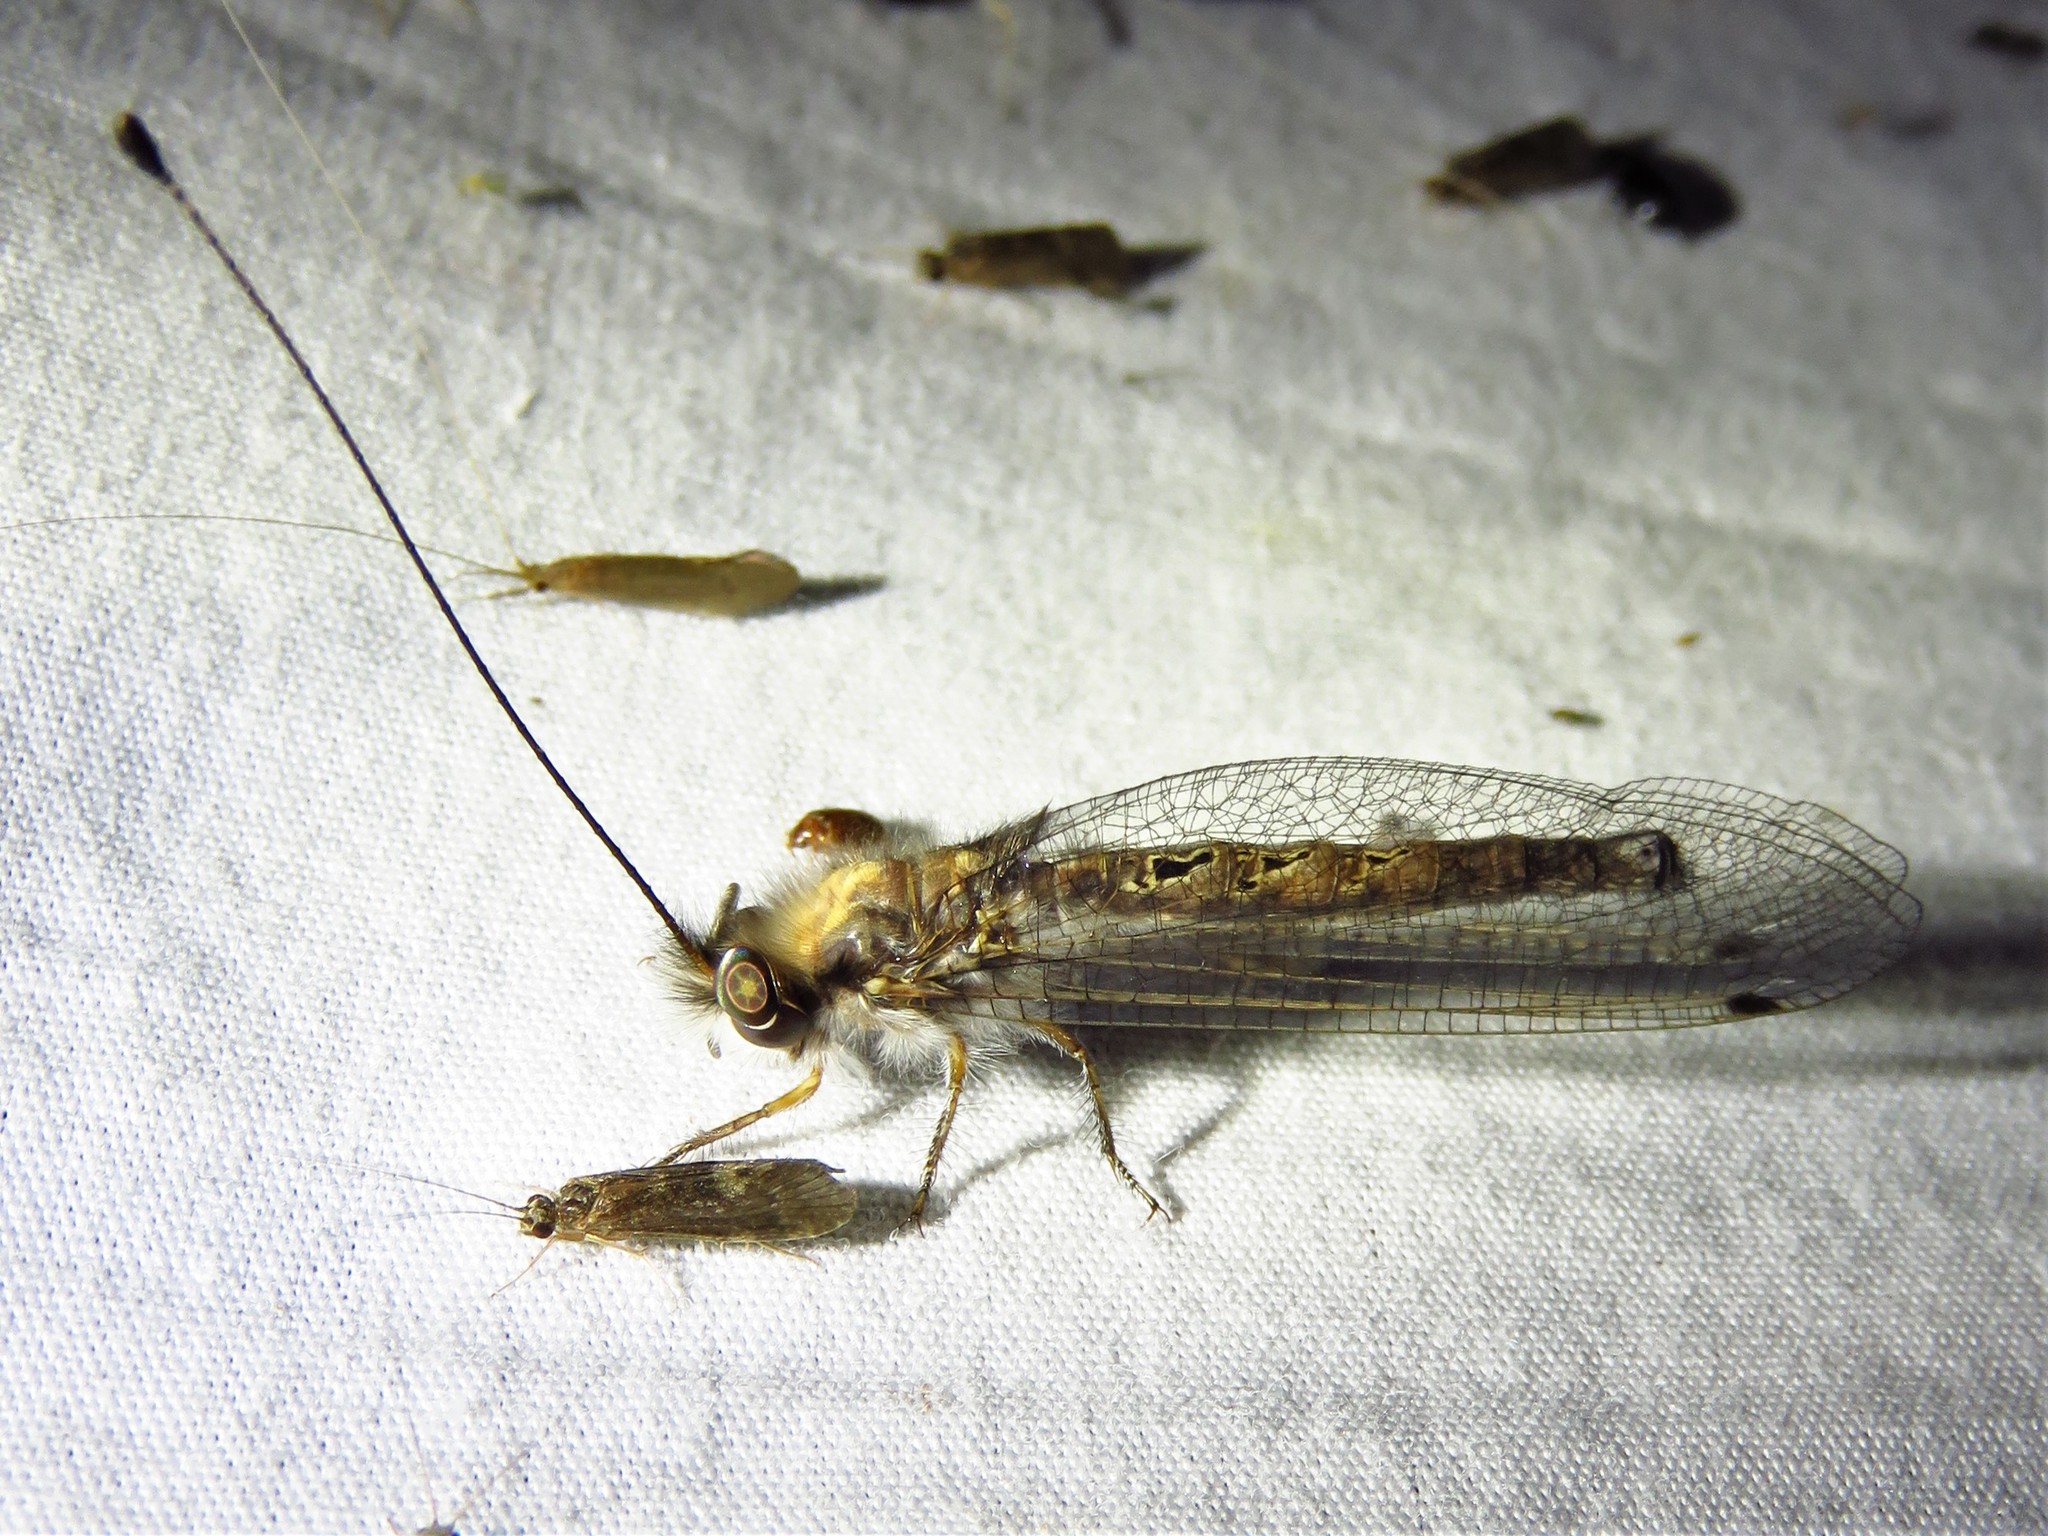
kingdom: Animalia
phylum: Arthropoda
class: Insecta
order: Neuroptera
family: Ascalaphidae
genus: Ululodes
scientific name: Ululodes macleayanus
